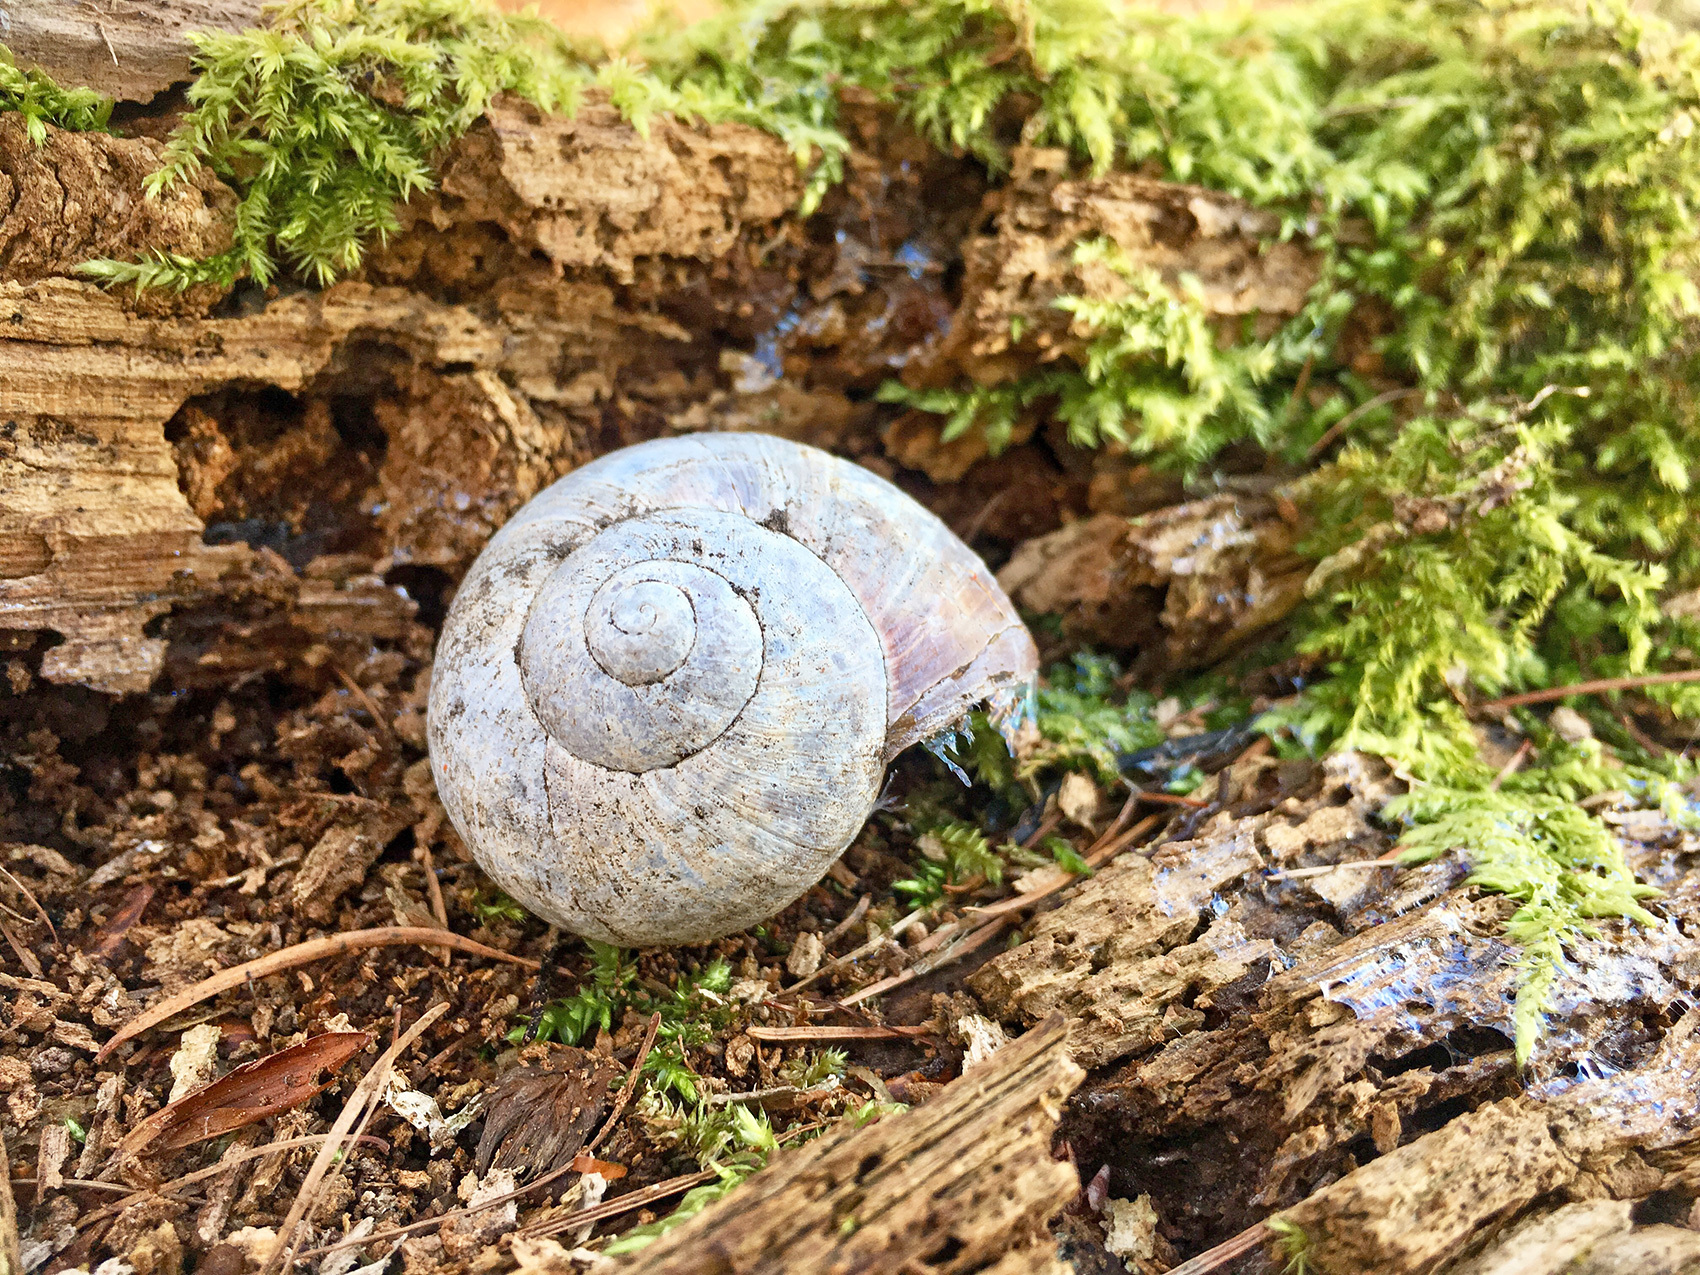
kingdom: Animalia
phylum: Mollusca
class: Gastropoda
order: Stylommatophora
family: Helicidae
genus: Helix
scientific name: Helix pomatia
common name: Roman snail
